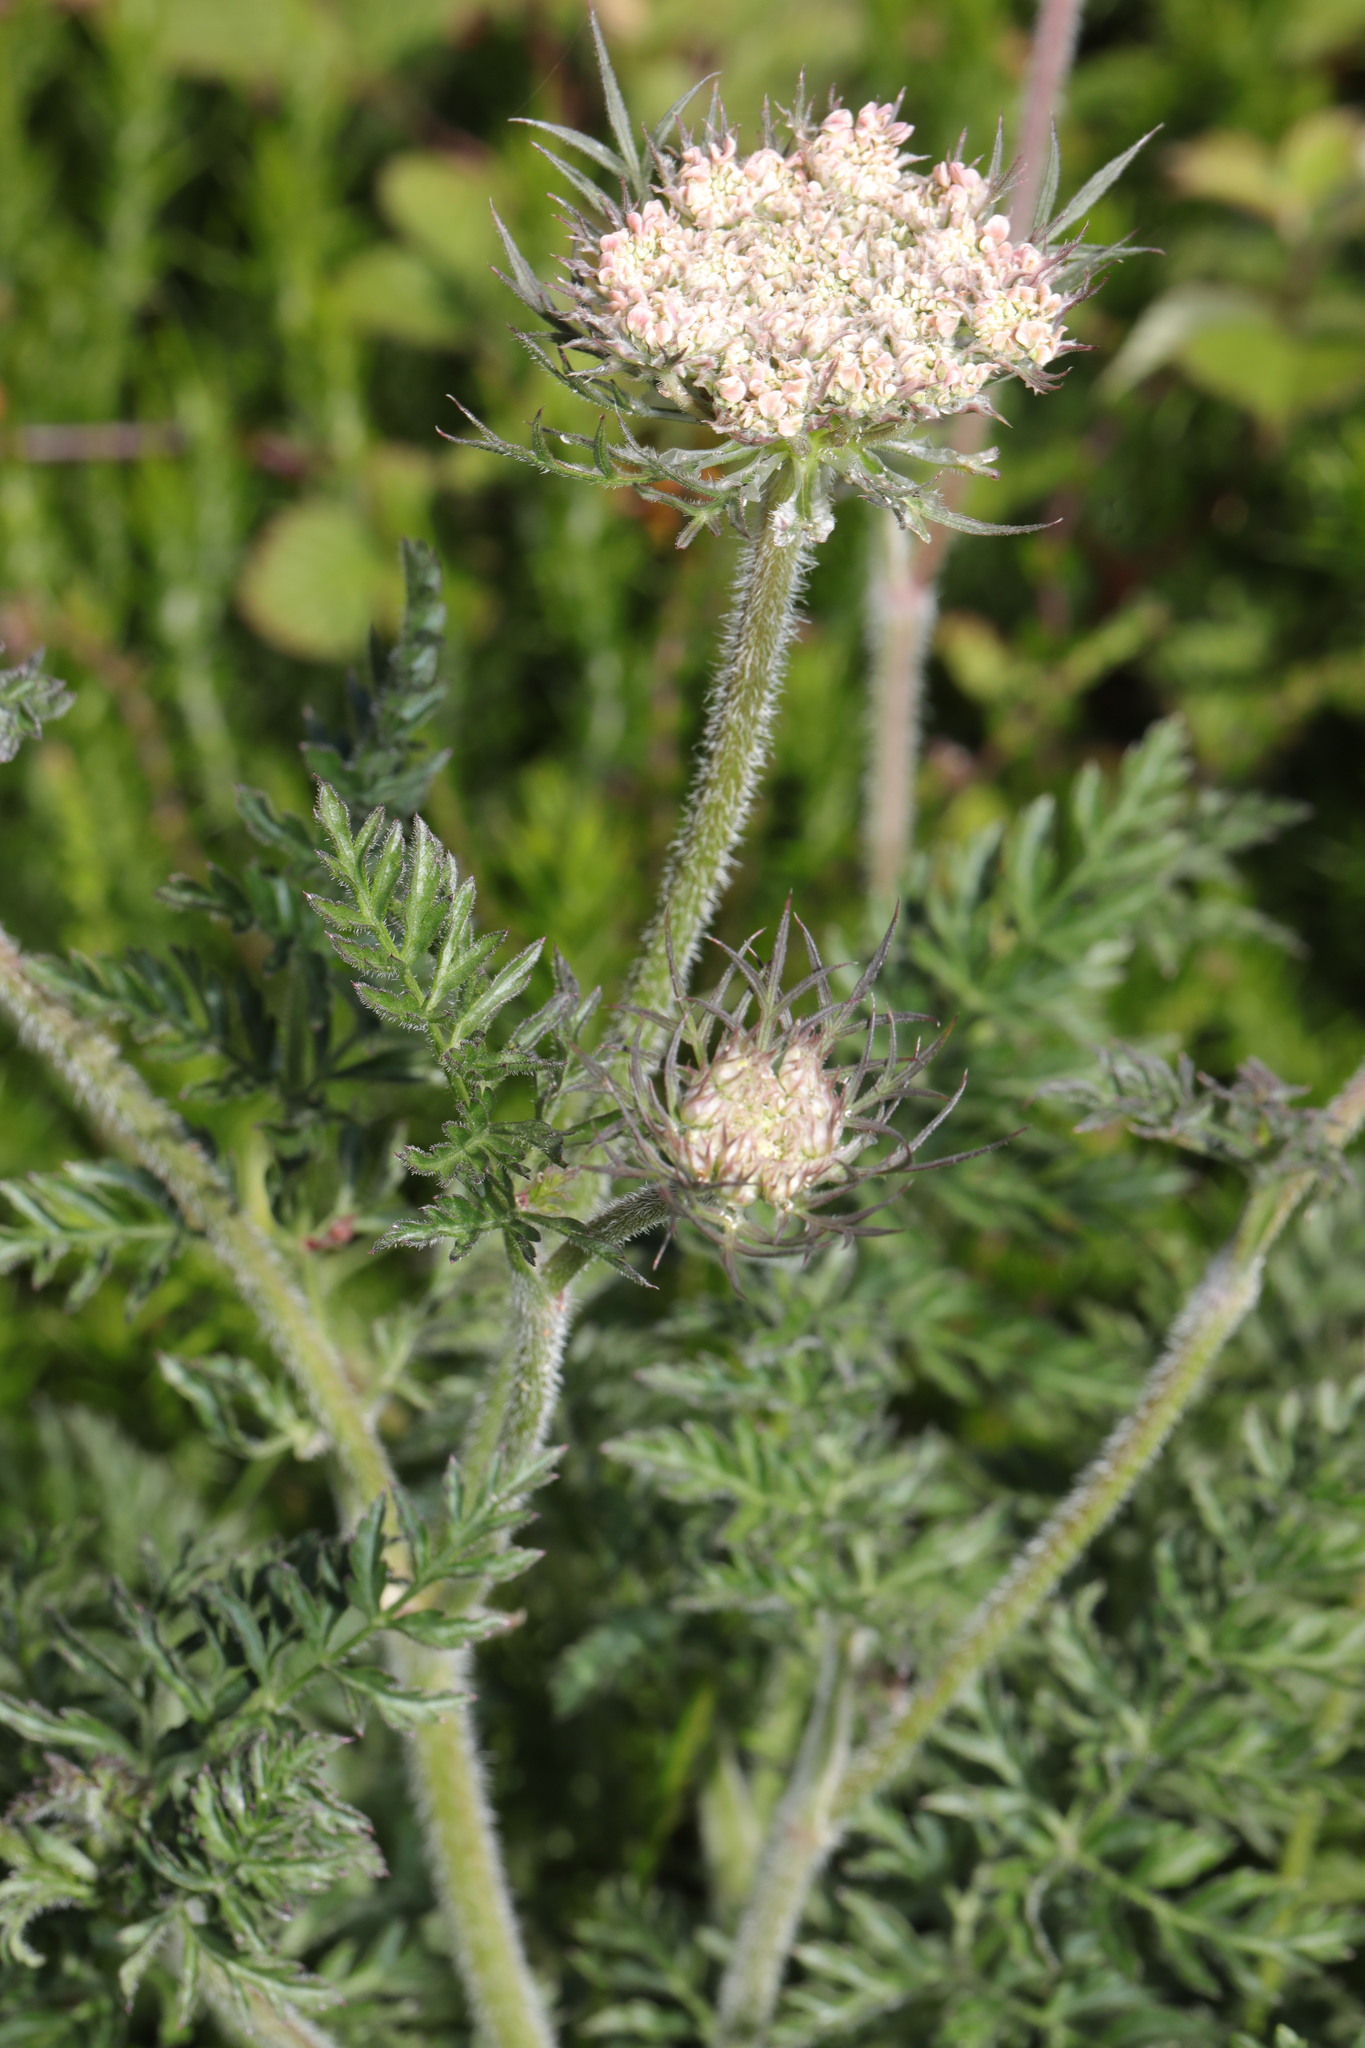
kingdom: Plantae
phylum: Tracheophyta
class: Magnoliopsida
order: Apiales
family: Apiaceae
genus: Daucus
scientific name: Daucus carota
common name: Wild carrot
